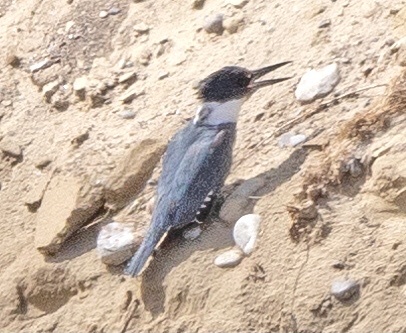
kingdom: Animalia
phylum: Chordata
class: Aves
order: Coraciiformes
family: Alcedinidae
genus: Megaceryle
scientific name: Megaceryle alcyon
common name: Belted kingfisher
